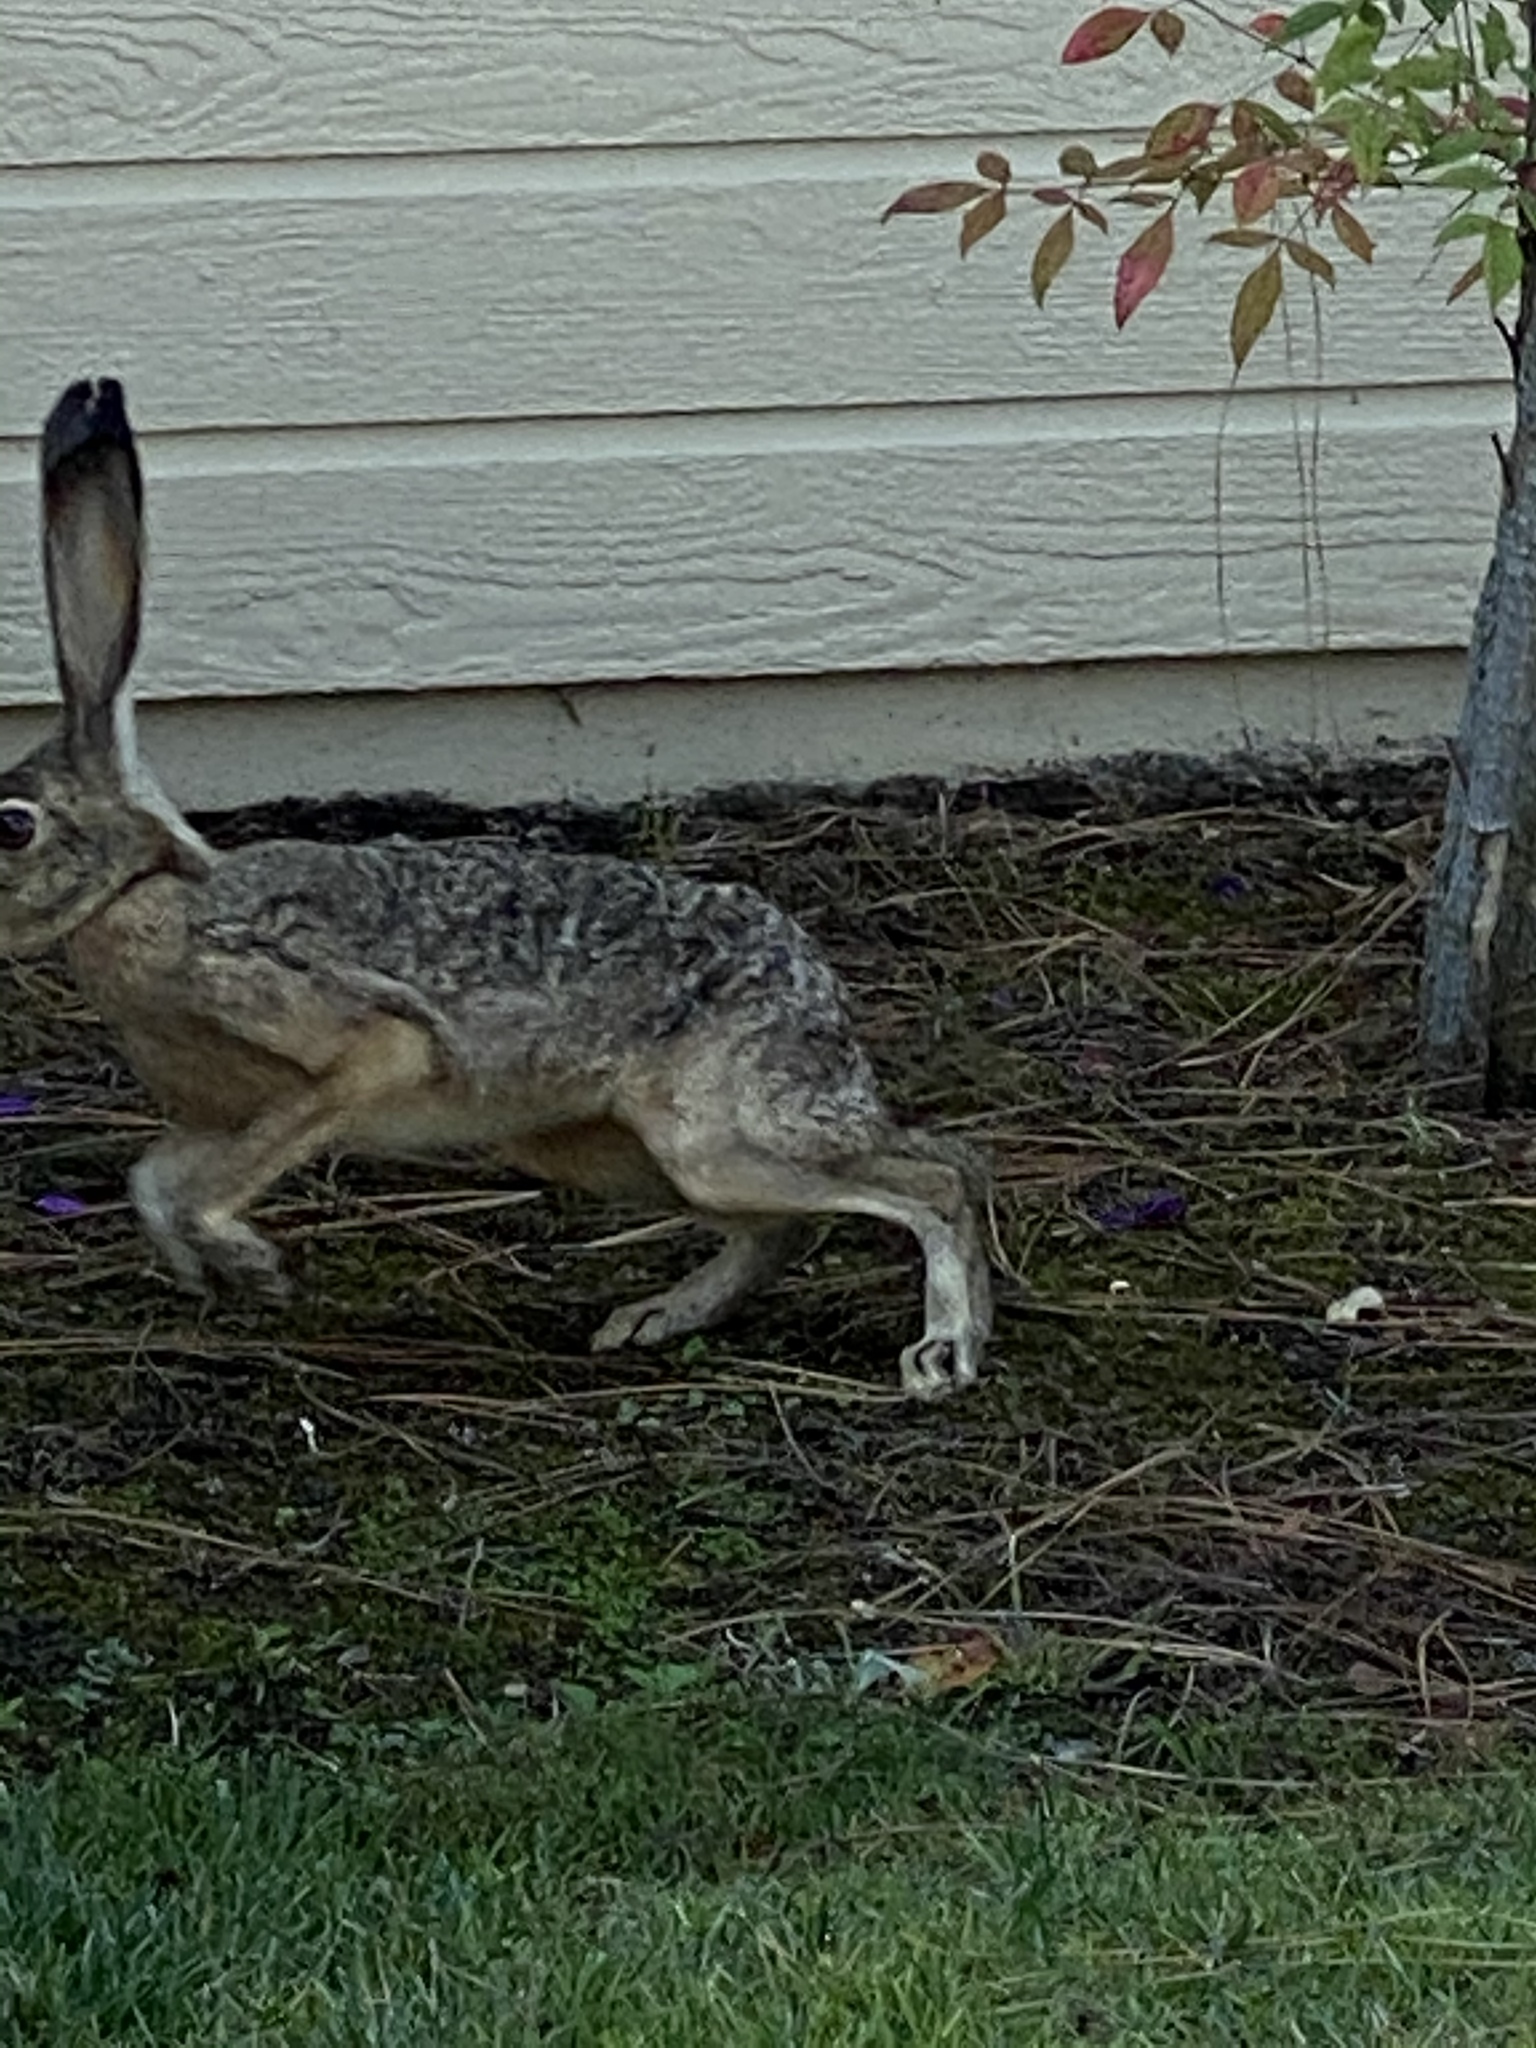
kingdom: Animalia
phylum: Chordata
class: Mammalia
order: Lagomorpha
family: Leporidae
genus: Lepus
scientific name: Lepus californicus
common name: Black-tailed jackrabbit
